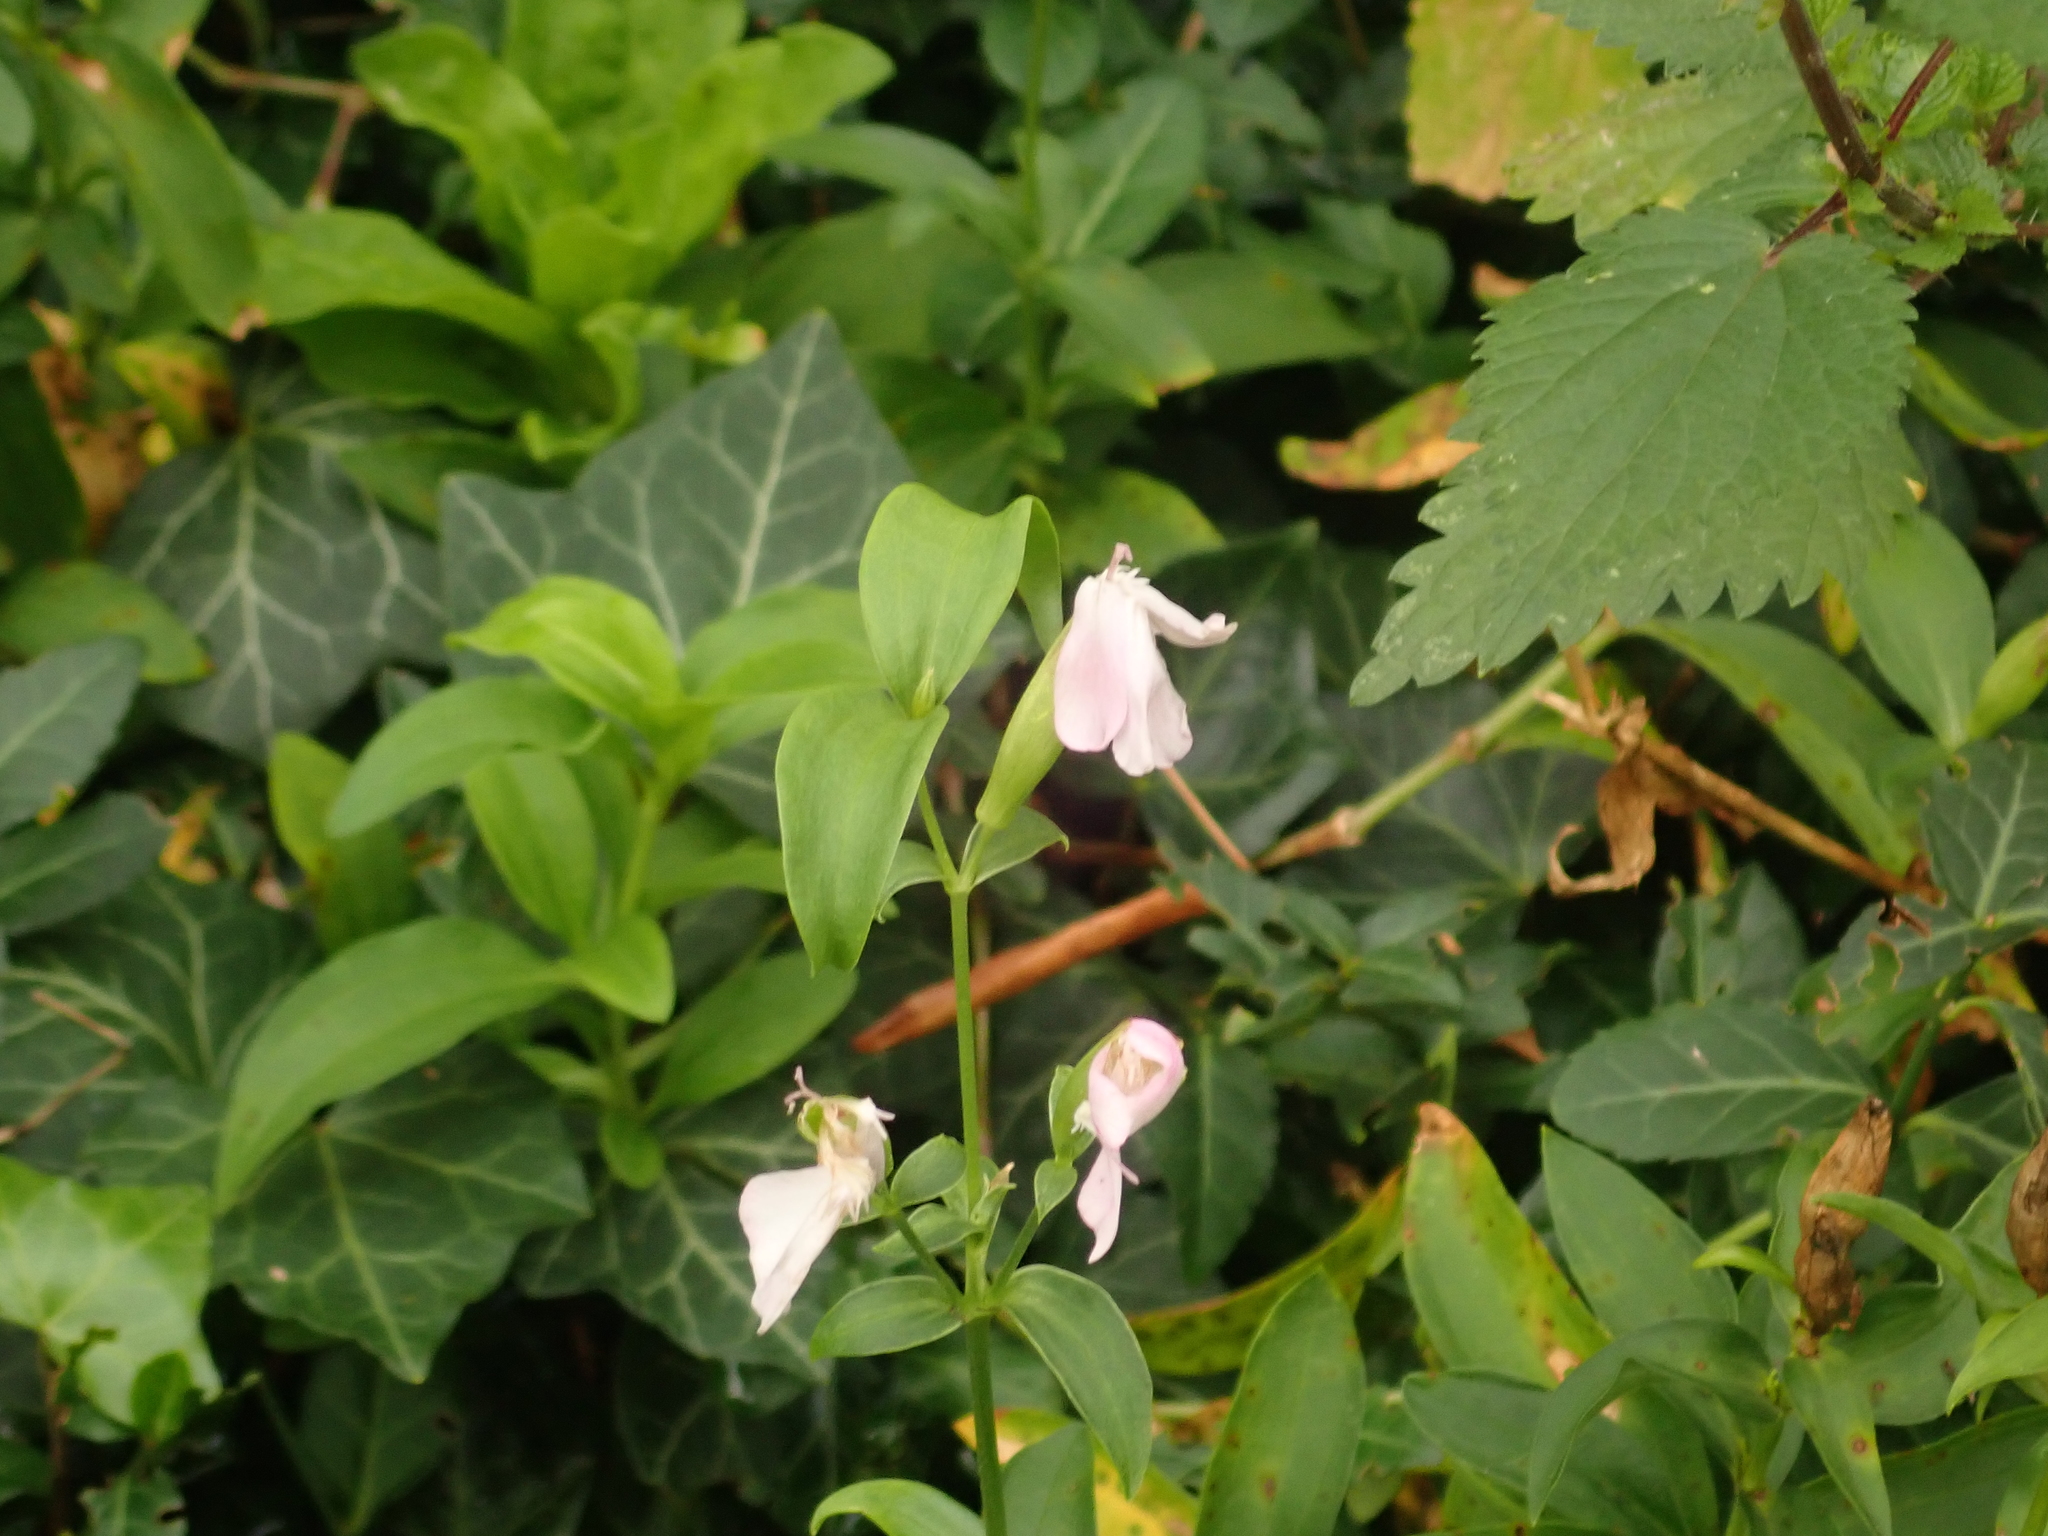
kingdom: Plantae
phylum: Tracheophyta
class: Magnoliopsida
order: Caryophyllales
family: Caryophyllaceae
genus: Saponaria
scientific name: Saponaria officinalis
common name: Soapwort
